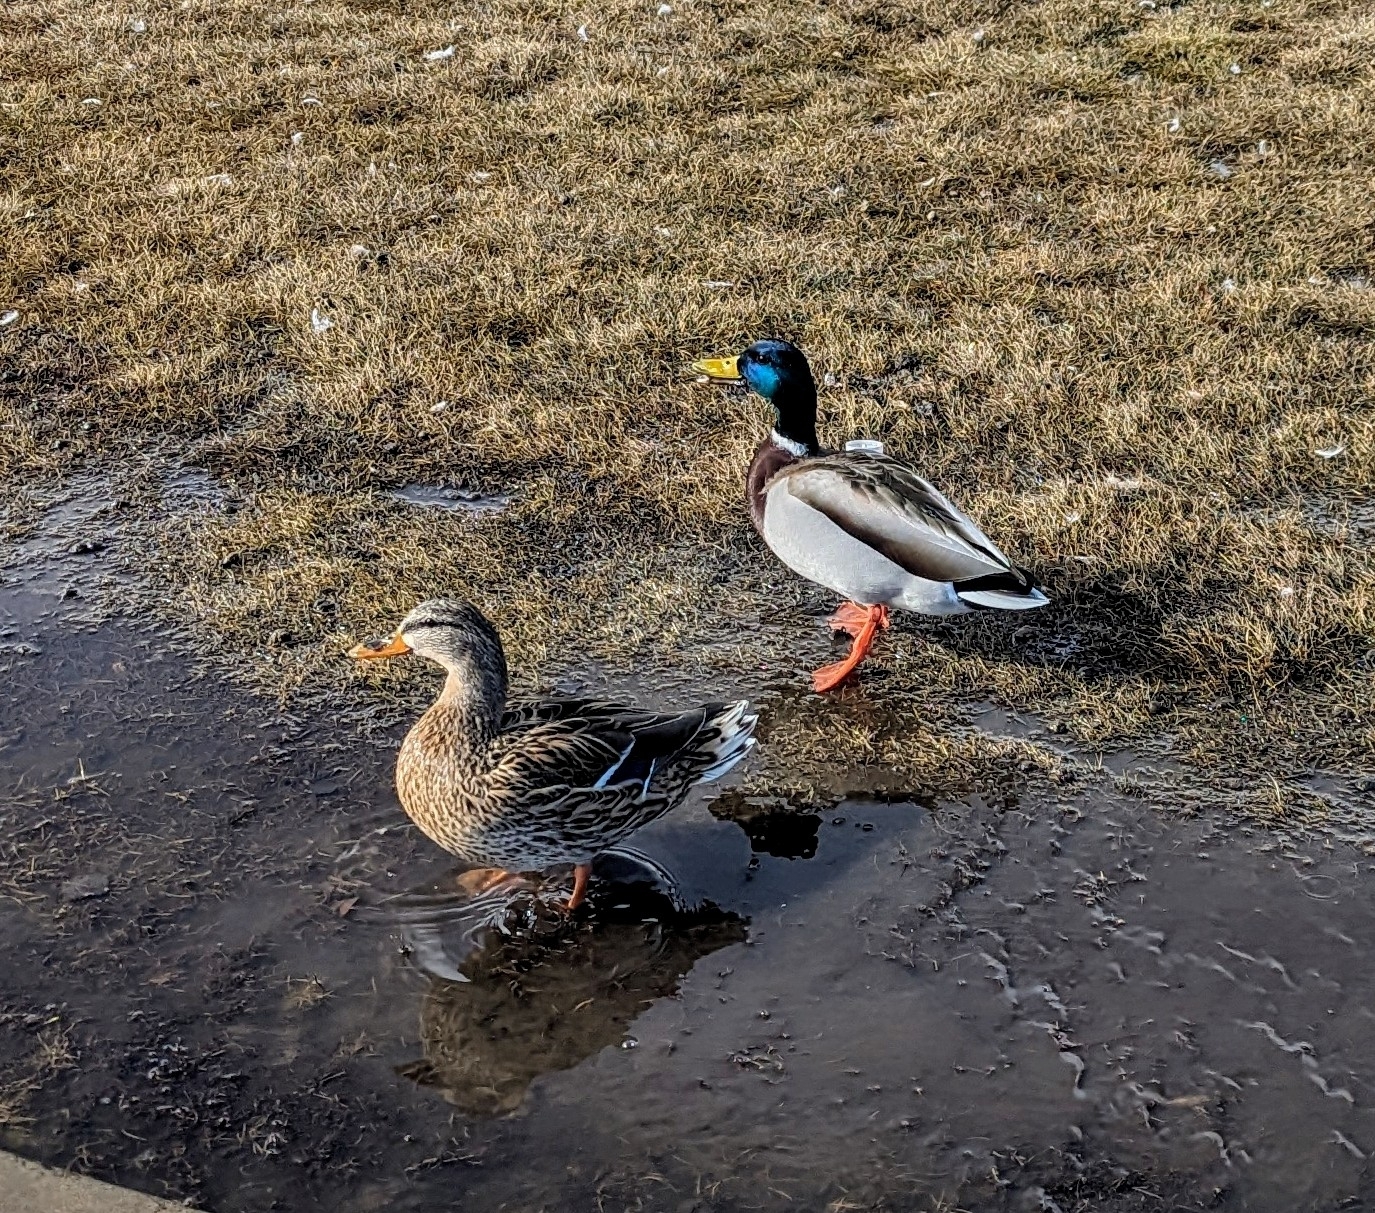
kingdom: Animalia
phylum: Chordata
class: Aves
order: Anseriformes
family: Anatidae
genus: Anas
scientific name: Anas platyrhynchos
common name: Mallard
